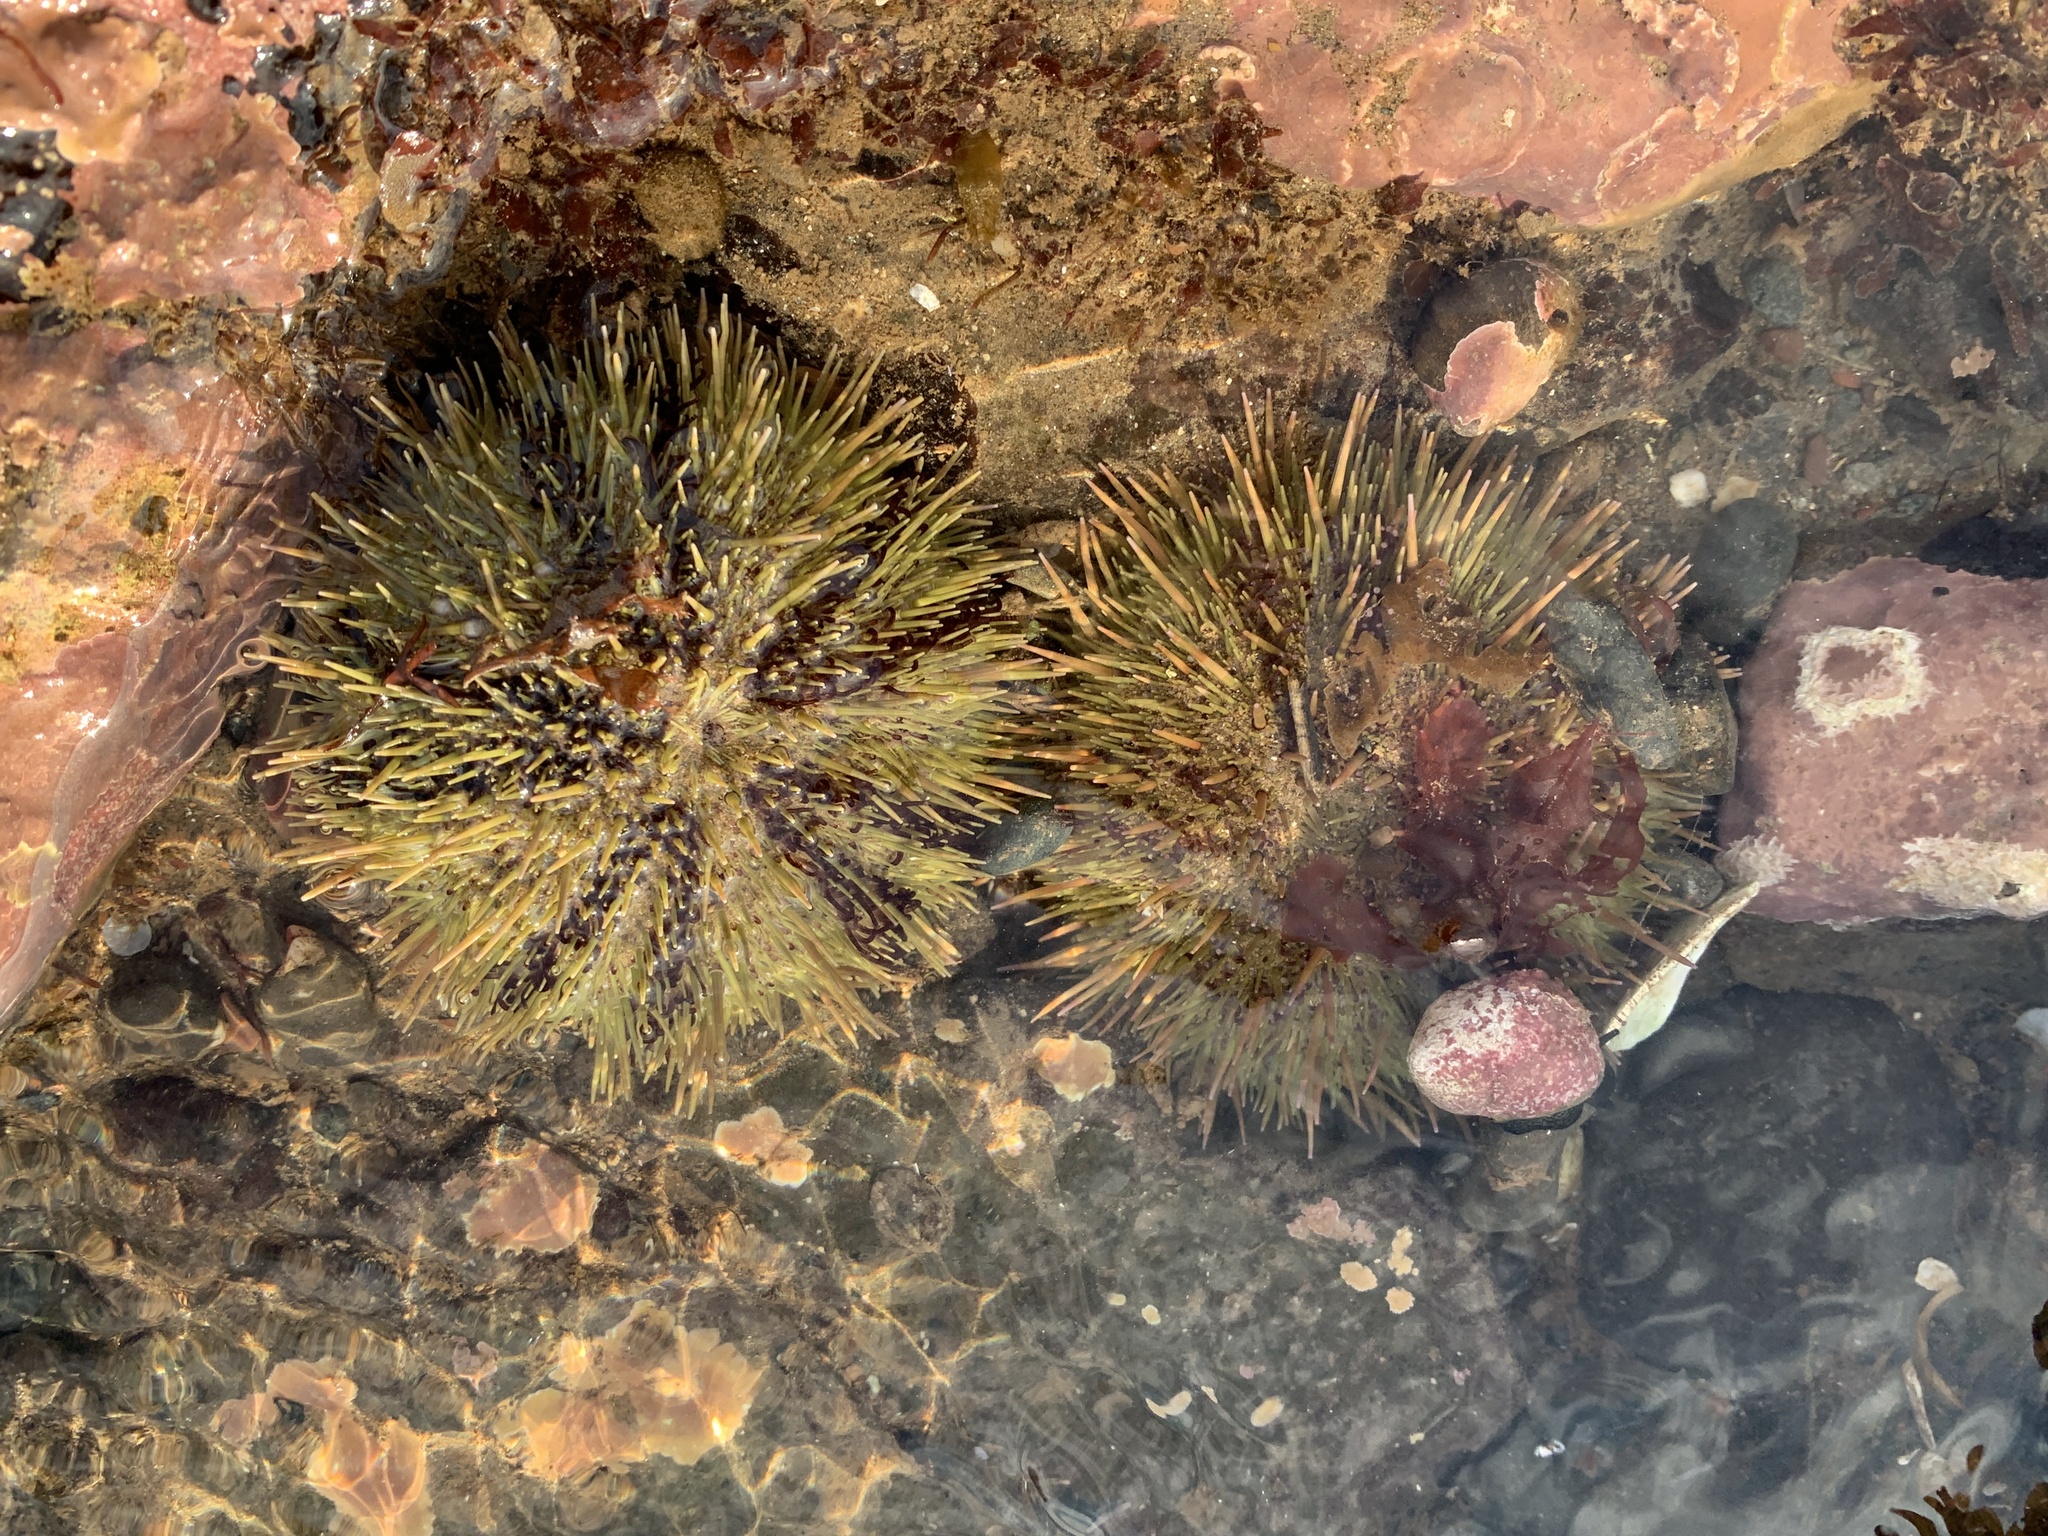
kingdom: Animalia
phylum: Echinodermata
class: Echinoidea
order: Camarodonta
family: Strongylocentrotidae
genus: Strongylocentrotus
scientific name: Strongylocentrotus droebachiensis
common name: Northern sea urchin
